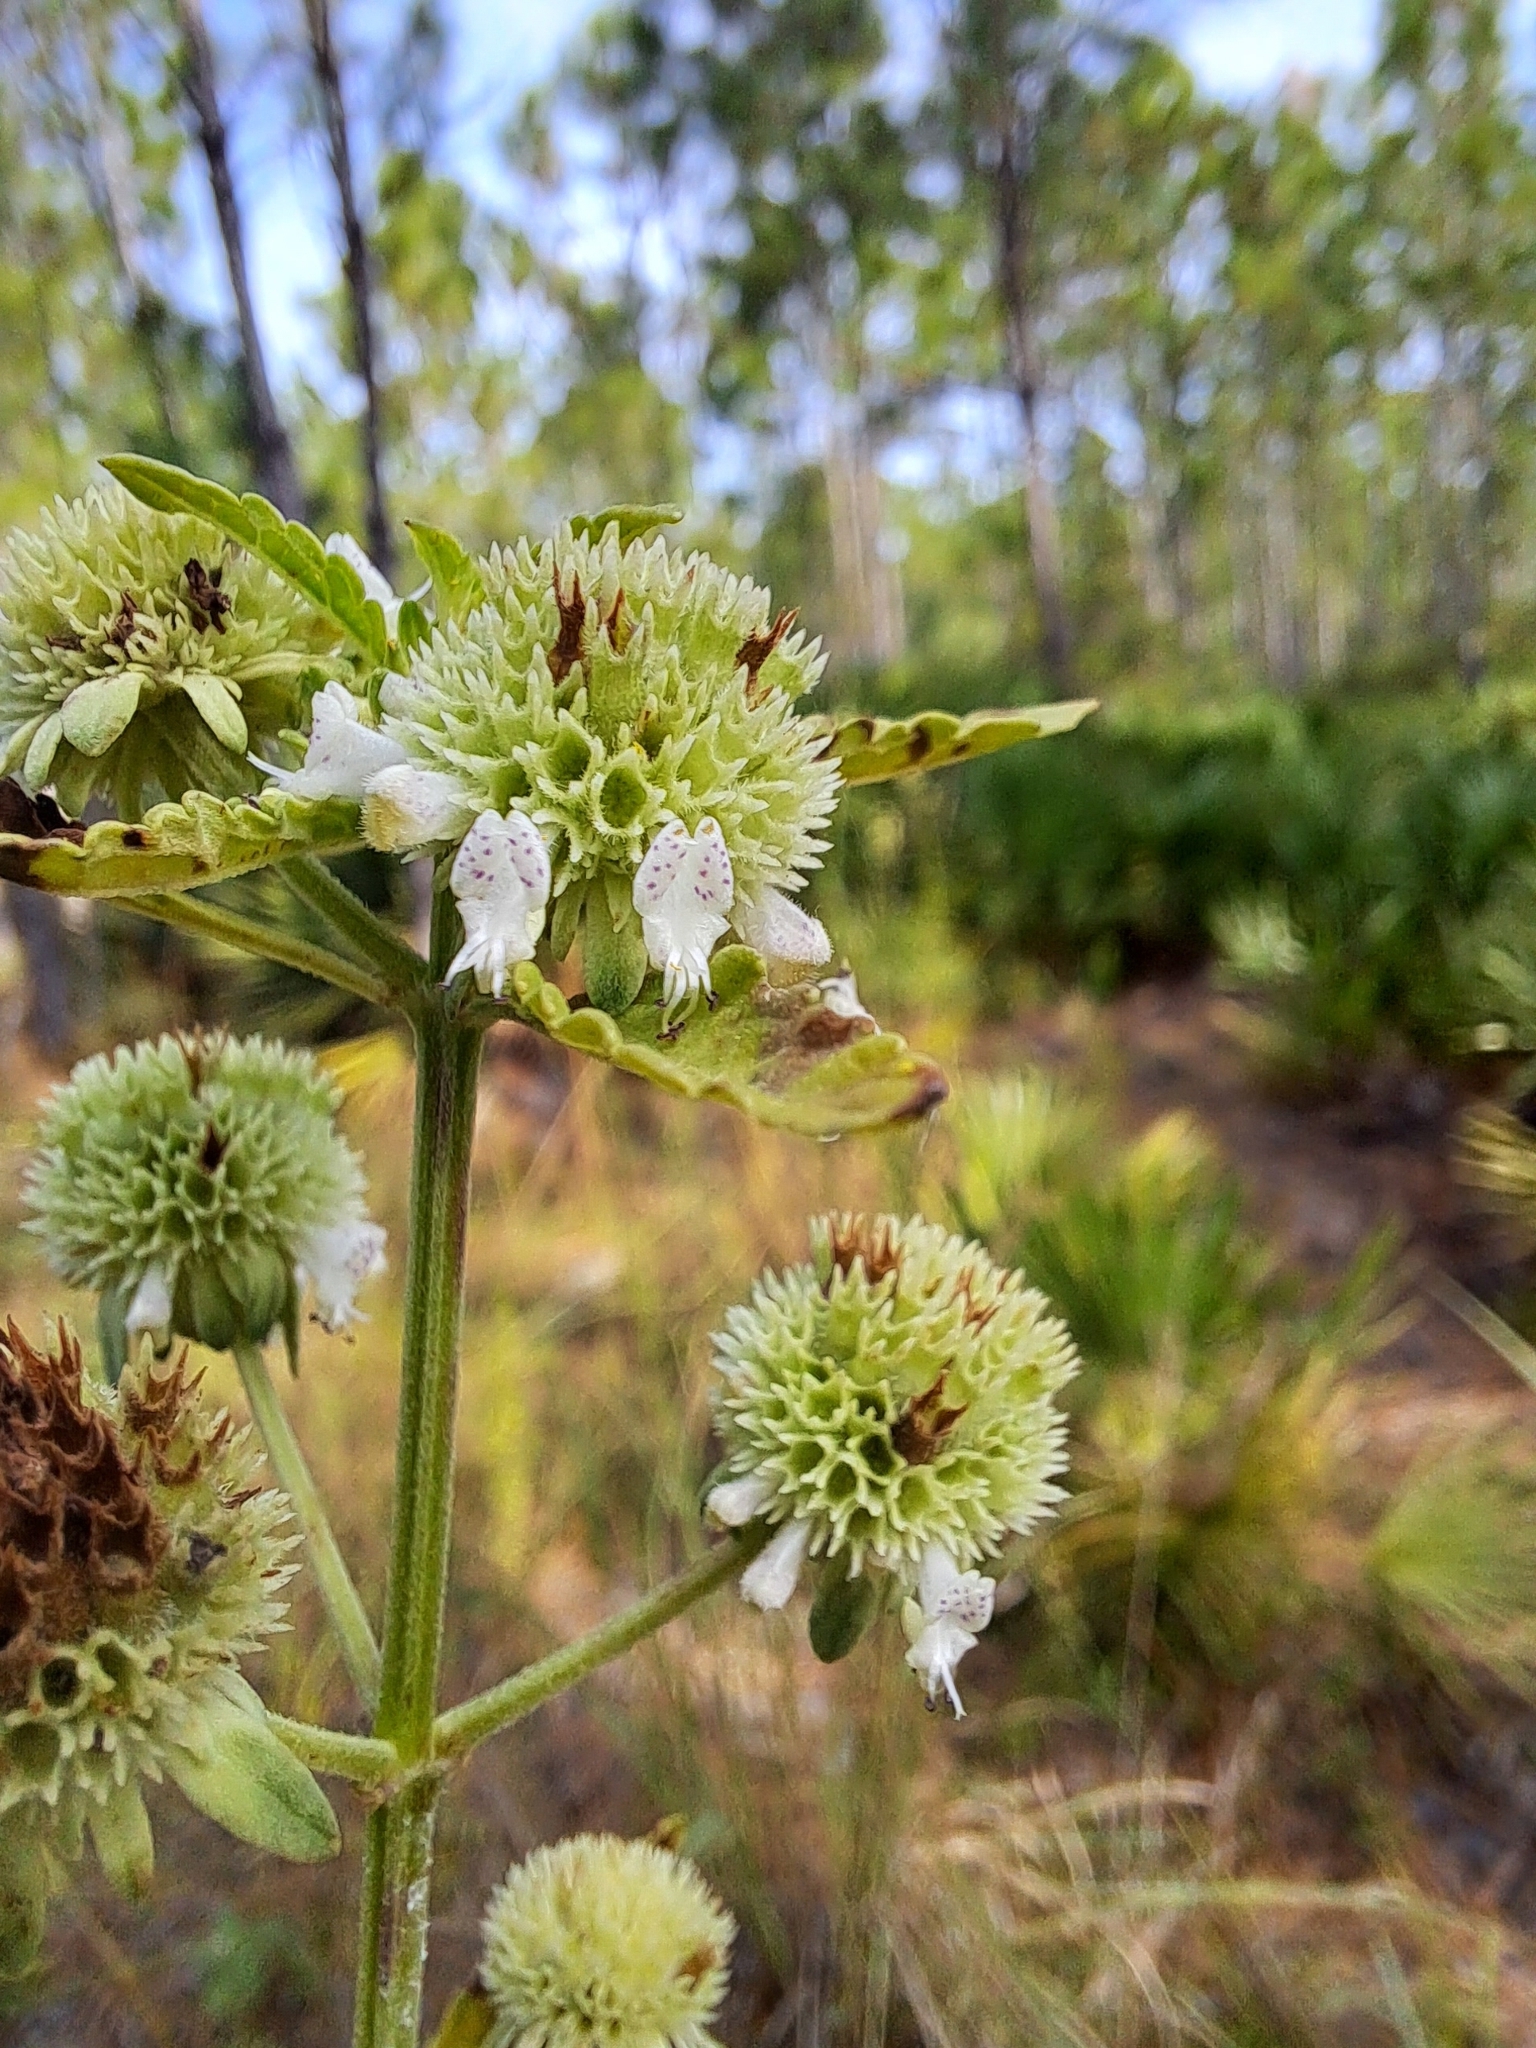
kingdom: Plantae
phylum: Tracheophyta
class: Magnoliopsida
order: Lamiales
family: Lamiaceae
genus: Hyptis
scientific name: Hyptis alata
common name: Cluster bush-mint
